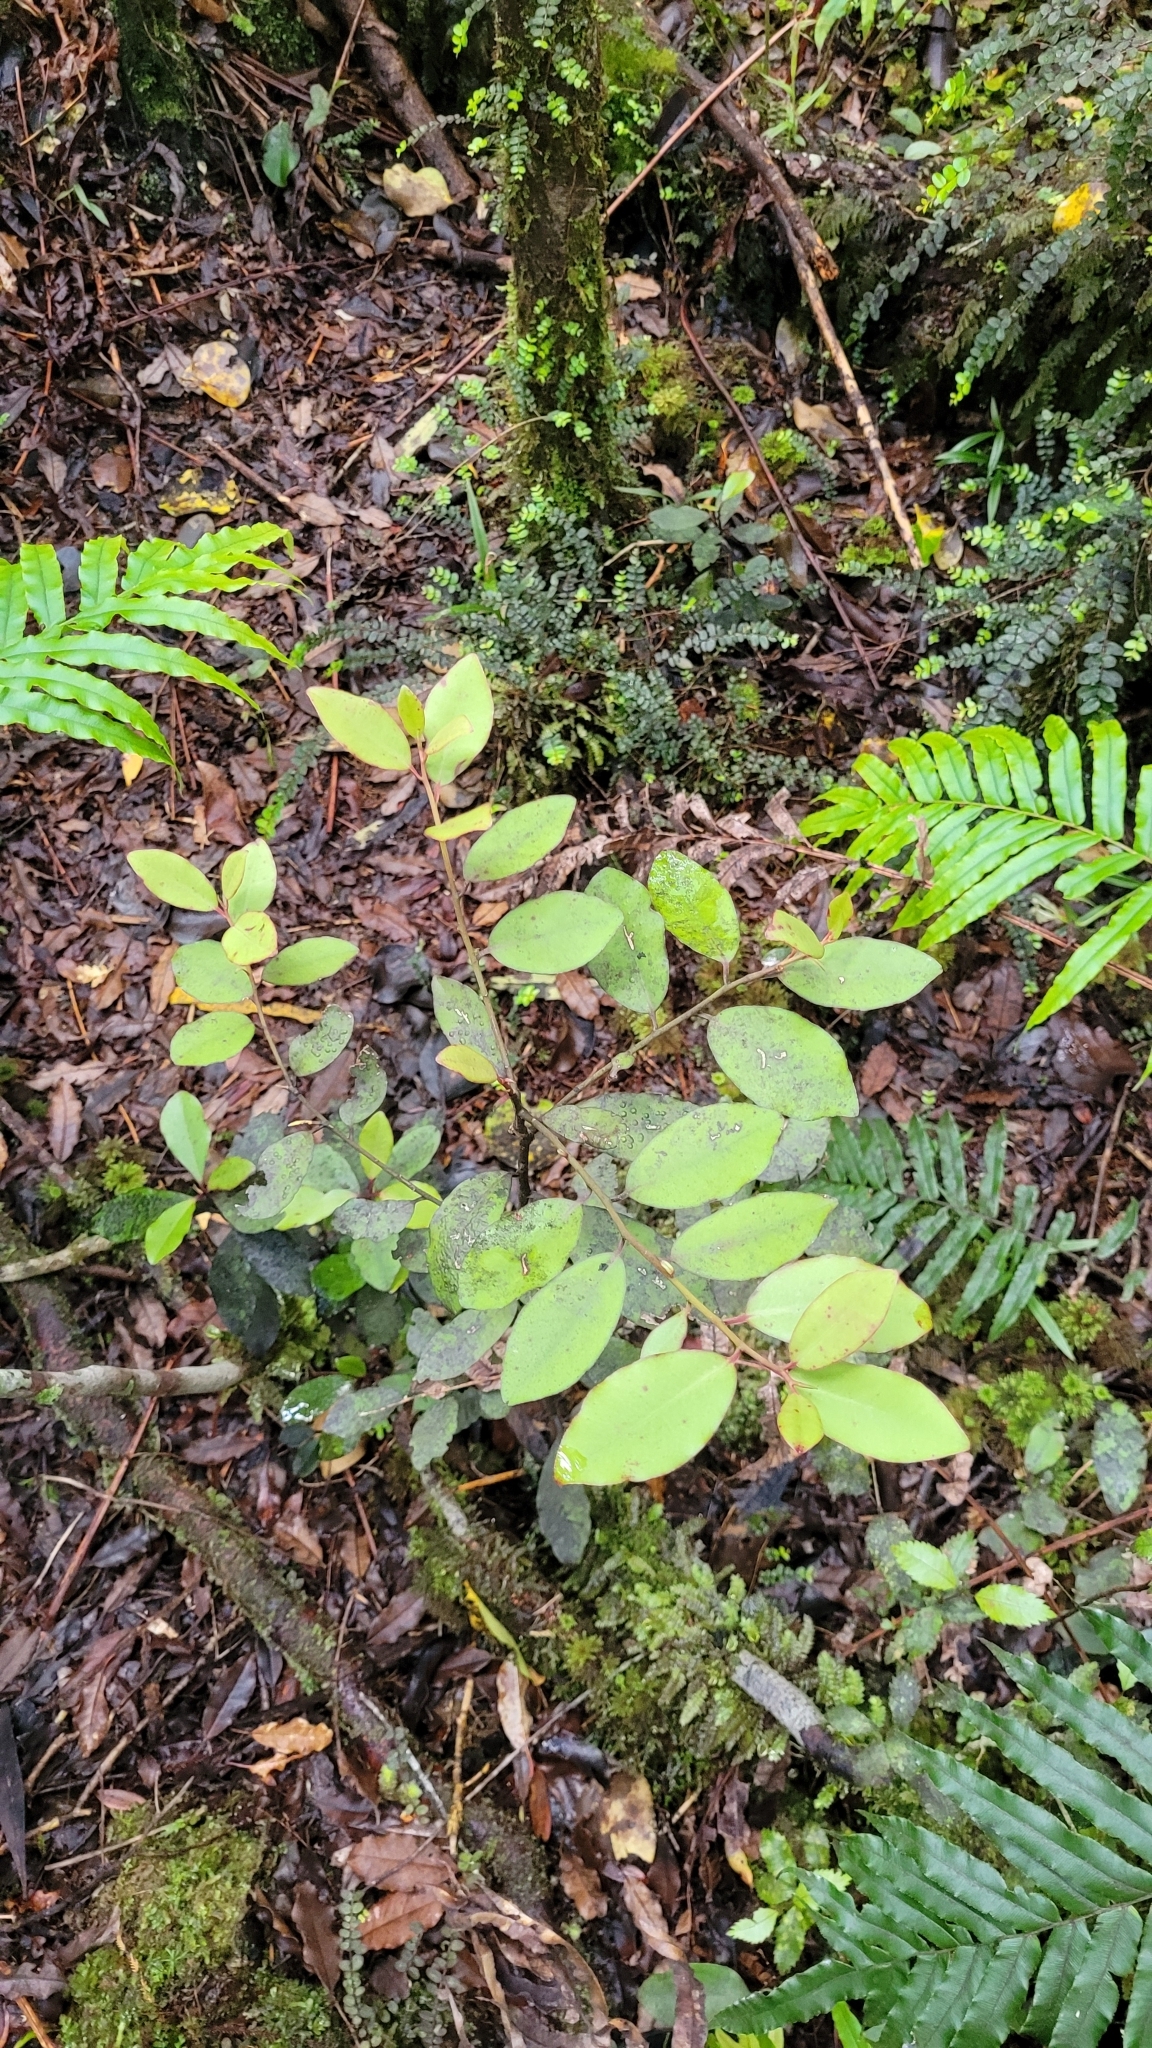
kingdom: Plantae
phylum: Tracheophyta
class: Magnoliopsida
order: Canellales
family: Winteraceae
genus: Pseudowintera
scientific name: Pseudowintera colorata
